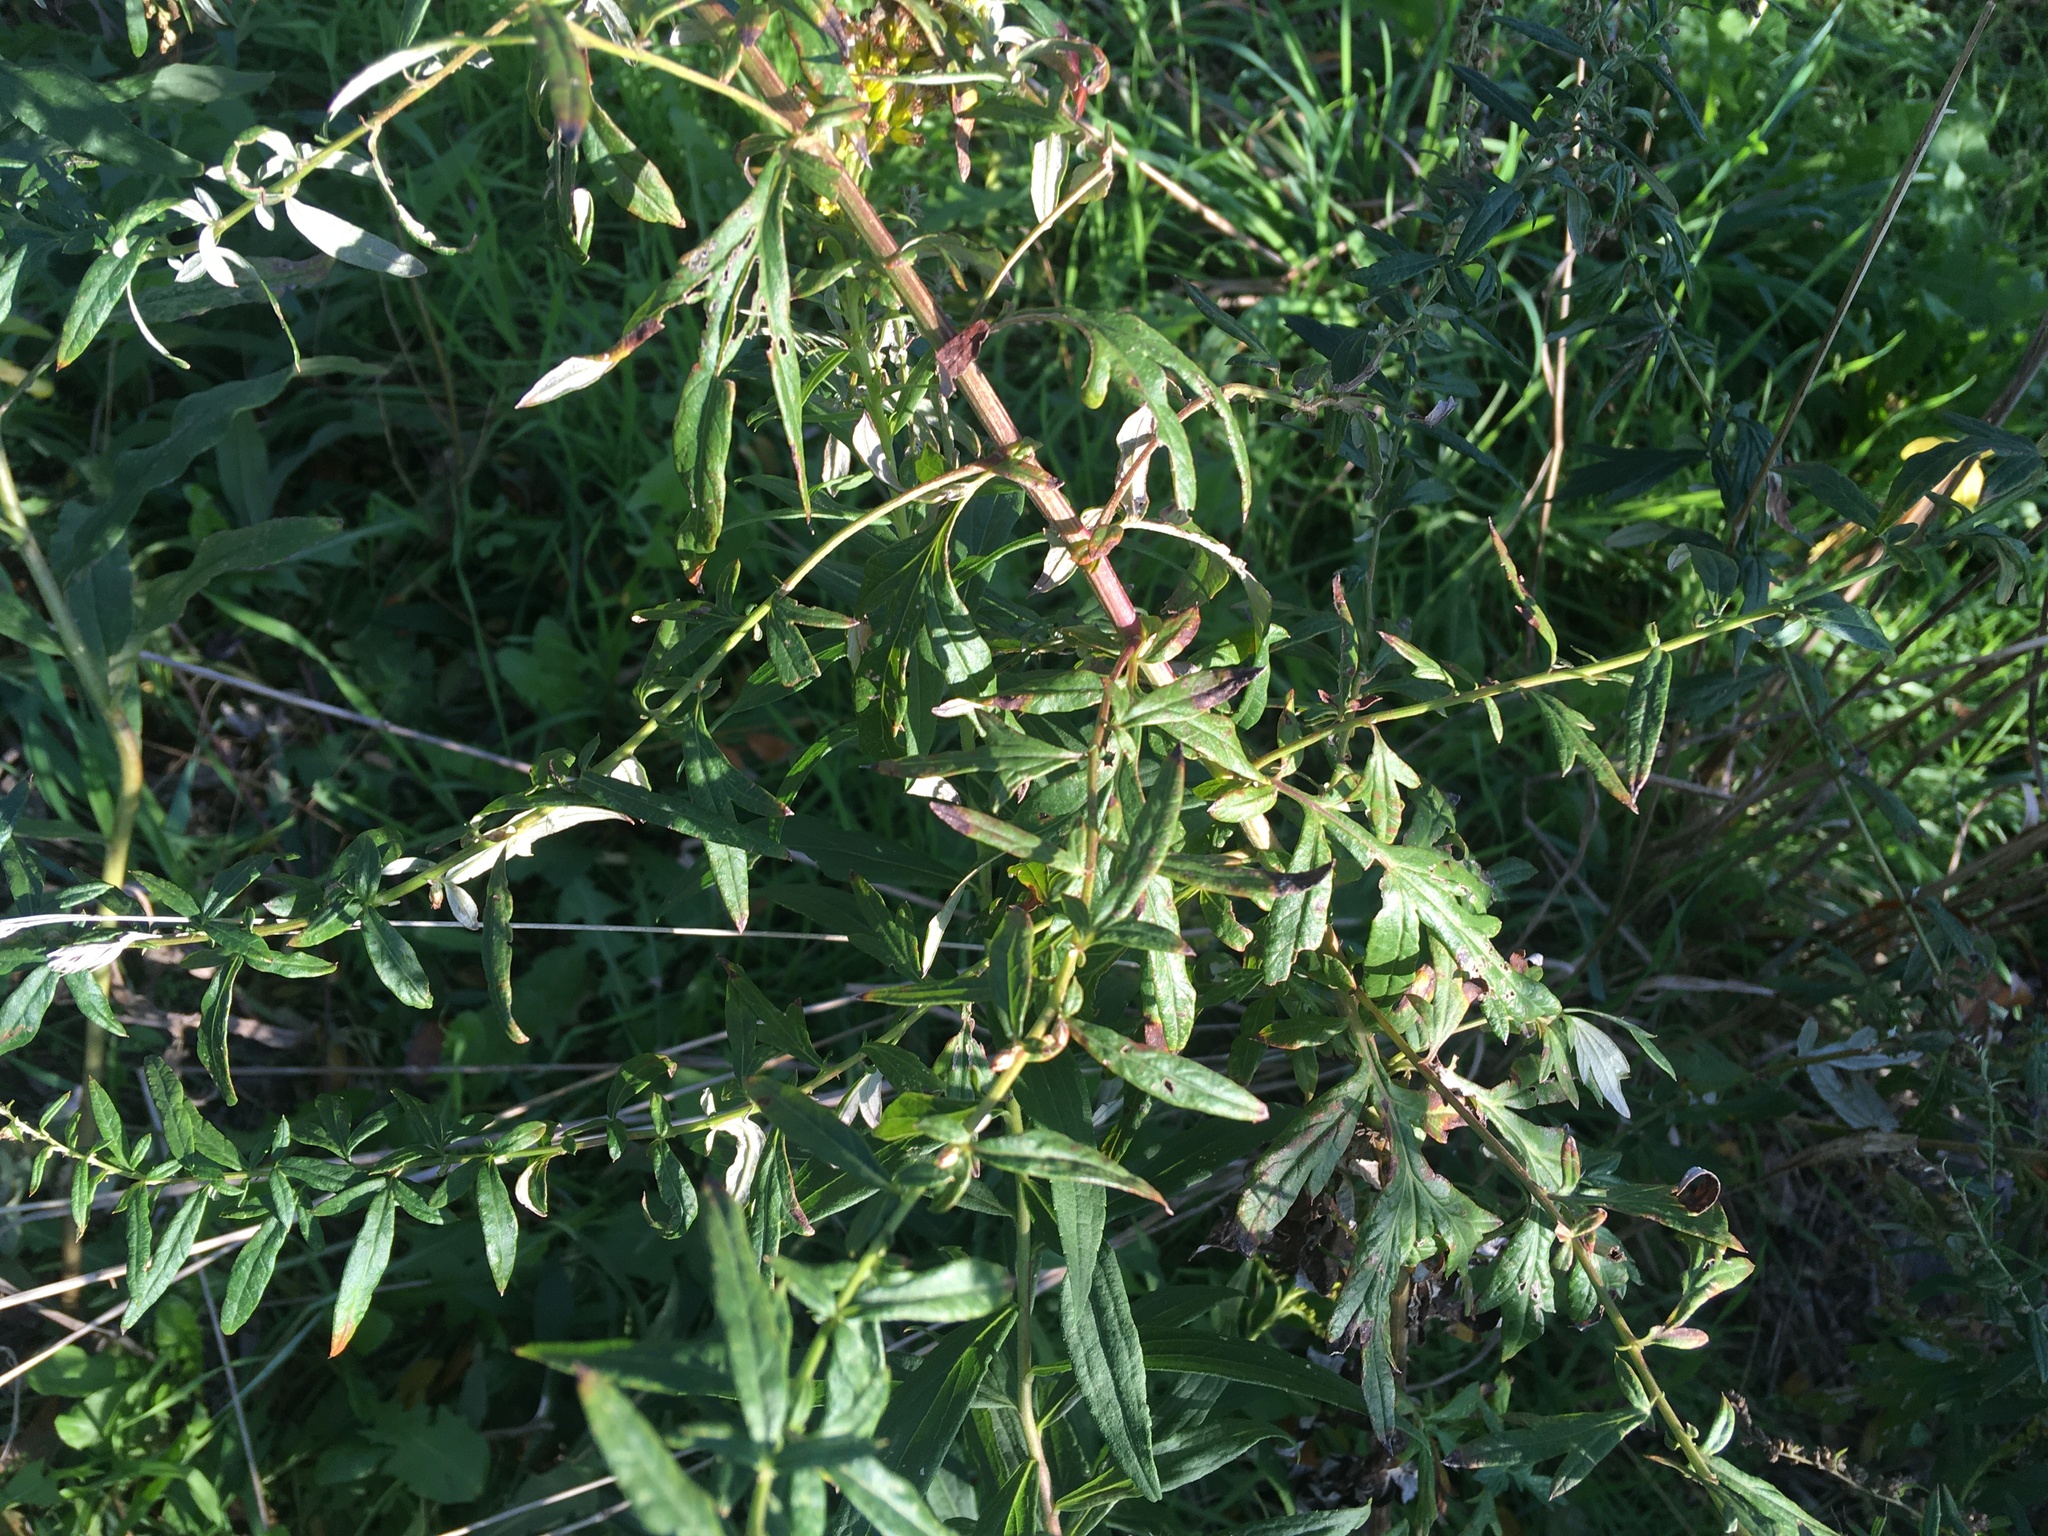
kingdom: Plantae
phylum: Tracheophyta
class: Magnoliopsida
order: Asterales
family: Asteraceae
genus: Artemisia
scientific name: Artemisia vulgaris
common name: Mugwort
